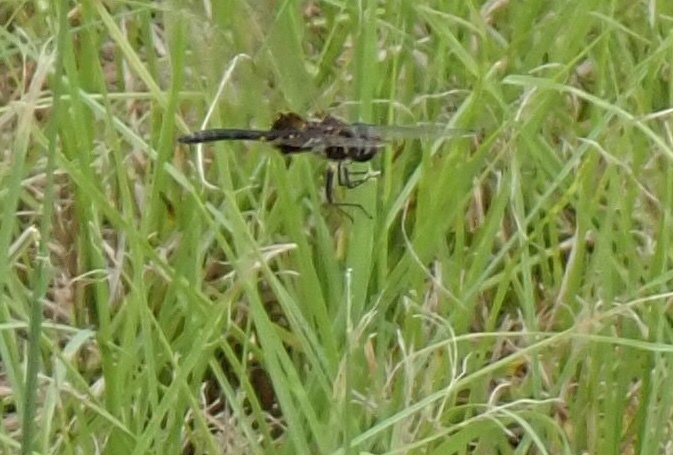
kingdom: Animalia
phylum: Arthropoda
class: Insecta
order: Odonata
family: Libellulidae
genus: Tramea
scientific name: Tramea lacerata
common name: Black saddlebags
